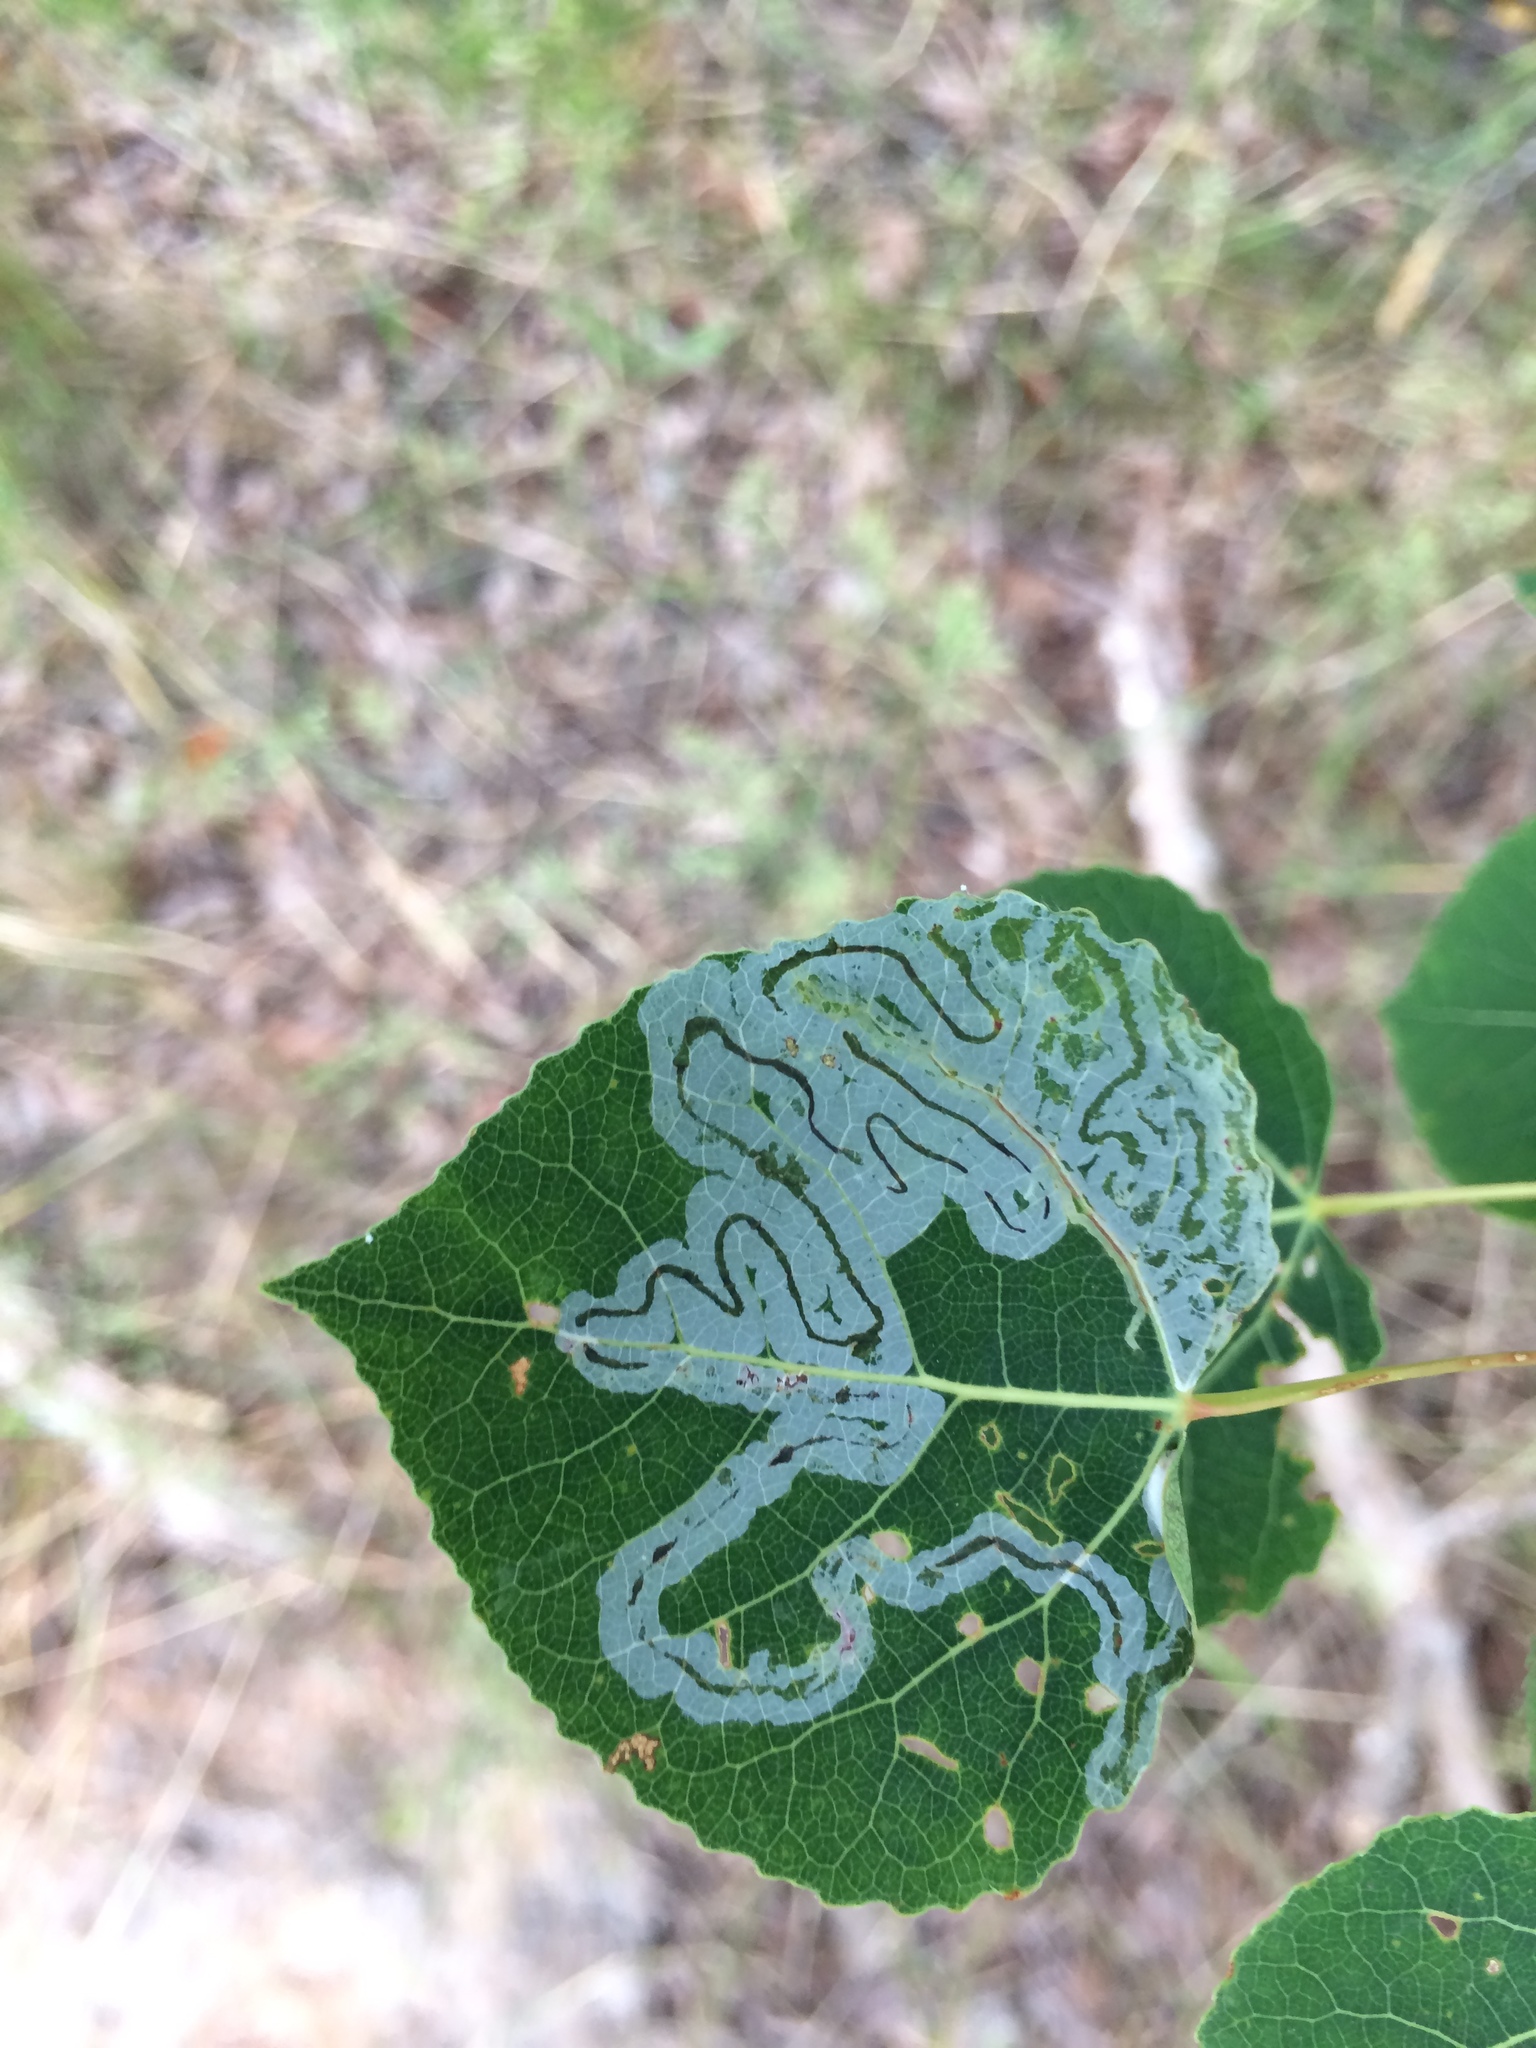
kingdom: Animalia
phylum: Arthropoda
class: Insecta
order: Lepidoptera
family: Gracillariidae
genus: Phyllocnistis
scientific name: Phyllocnistis populiella
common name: Aspen serpentine leafminer moth
